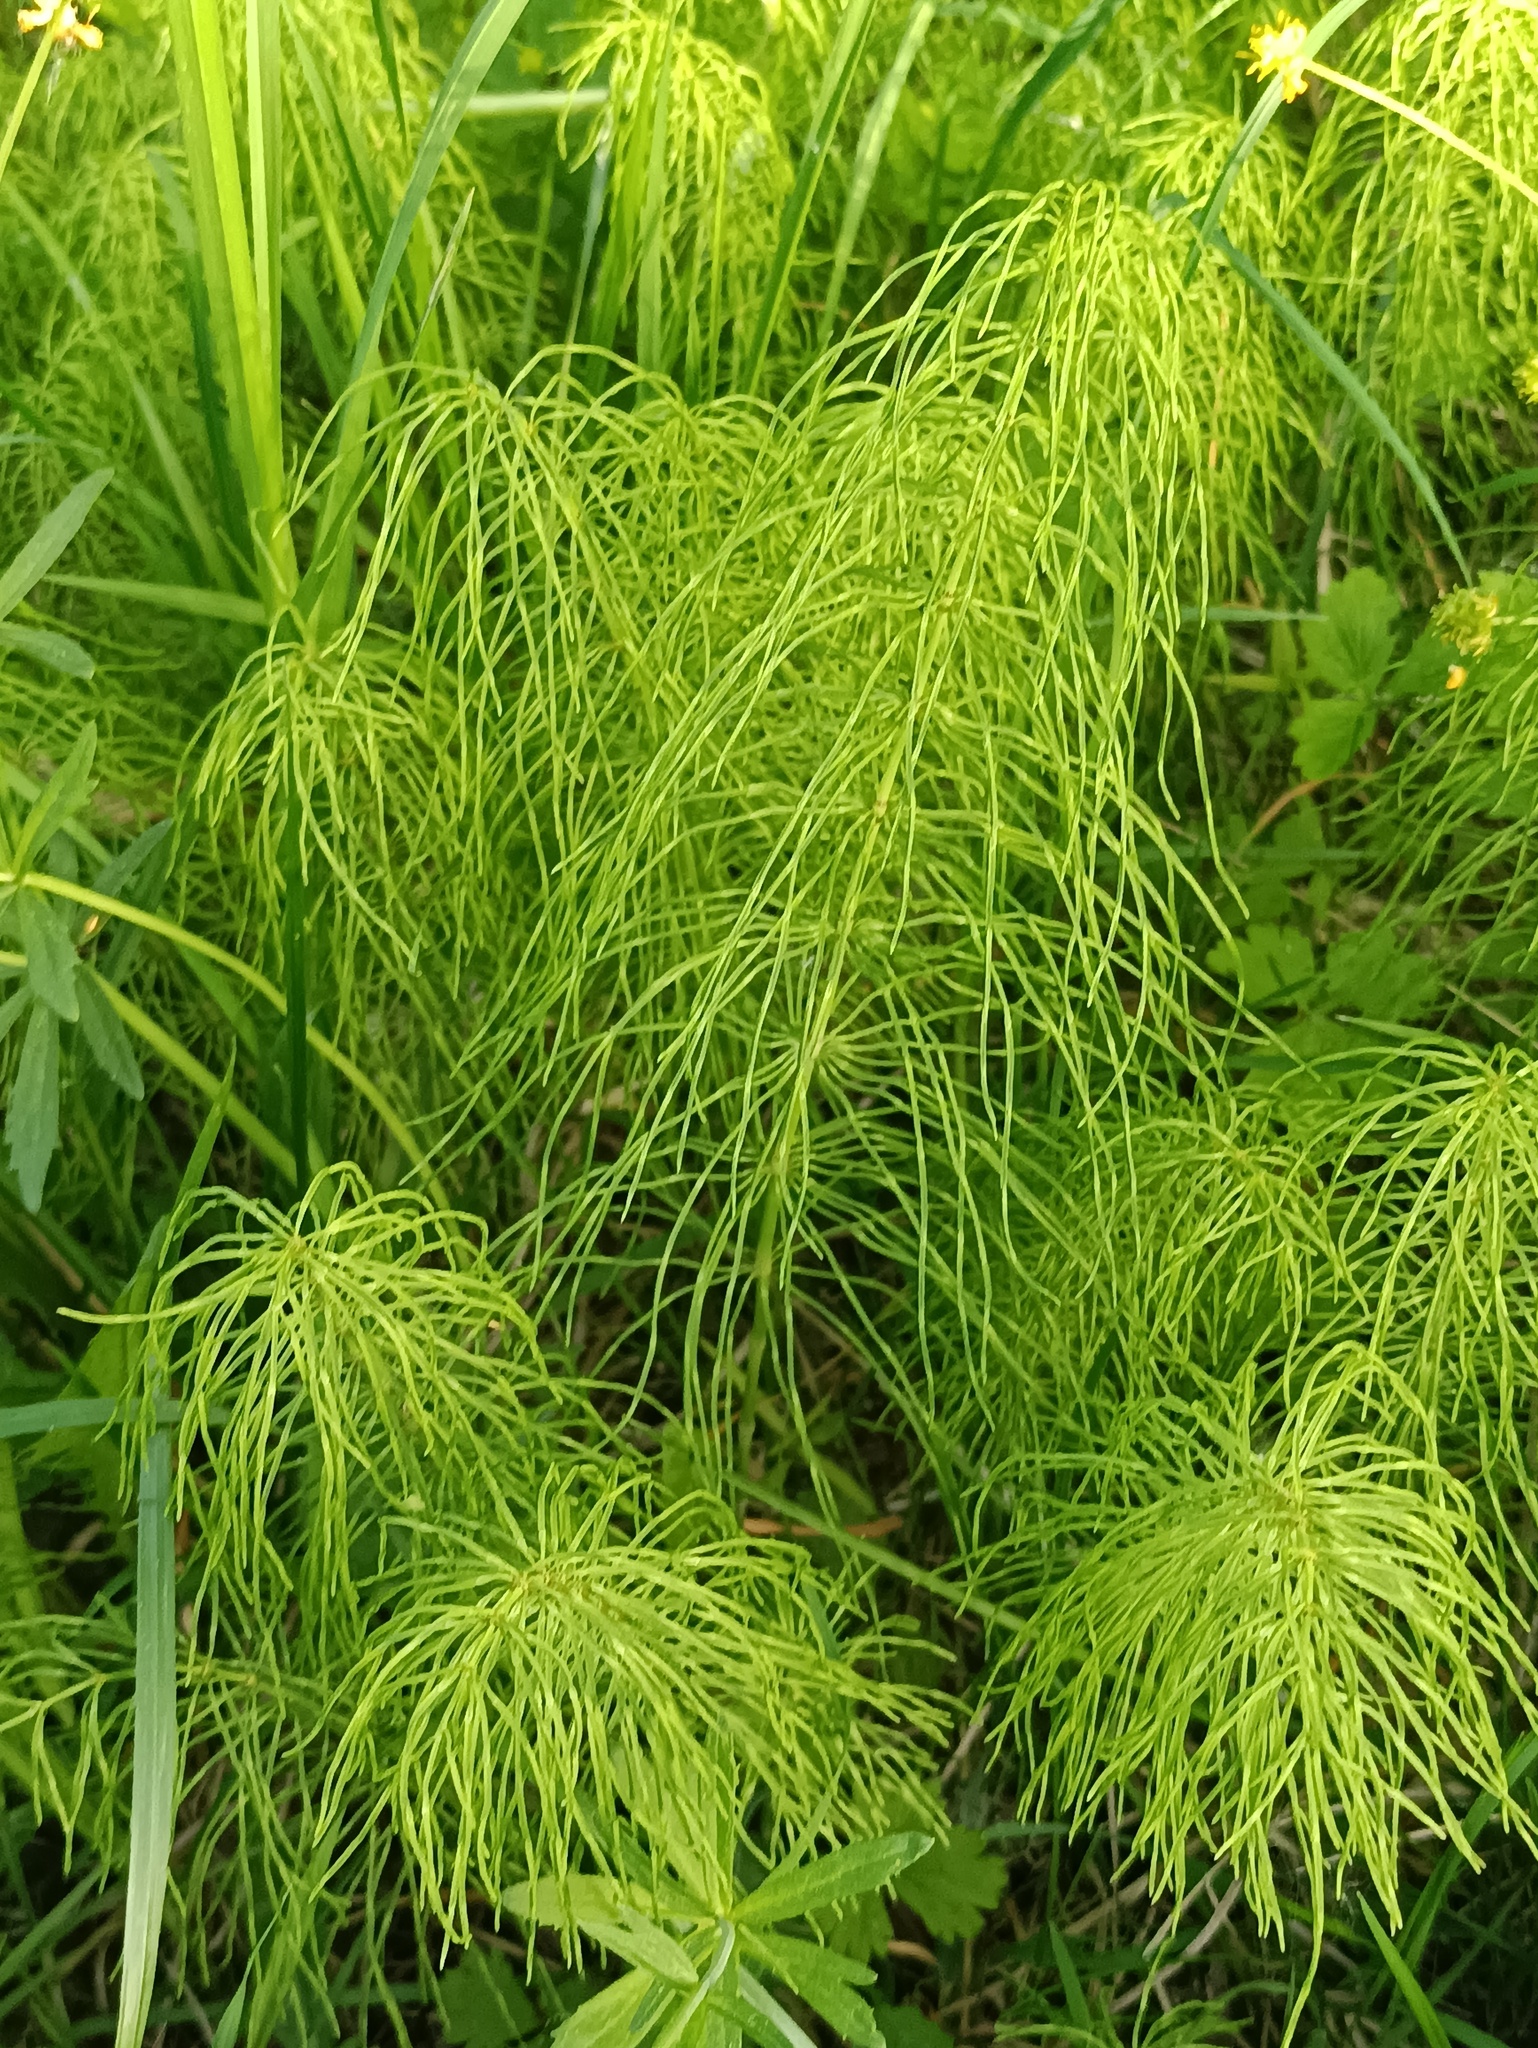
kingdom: Plantae
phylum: Tracheophyta
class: Polypodiopsida
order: Equisetales
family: Equisetaceae
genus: Equisetum
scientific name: Equisetum pratense
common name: Meadow horsetail
